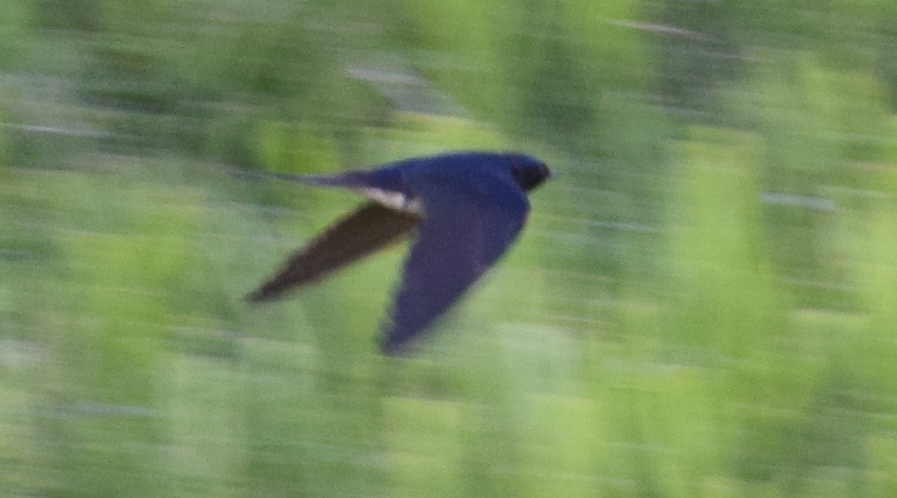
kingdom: Animalia
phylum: Chordata
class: Aves
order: Passeriformes
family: Hirundinidae
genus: Hirundo
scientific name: Hirundo rustica
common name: Barn swallow
